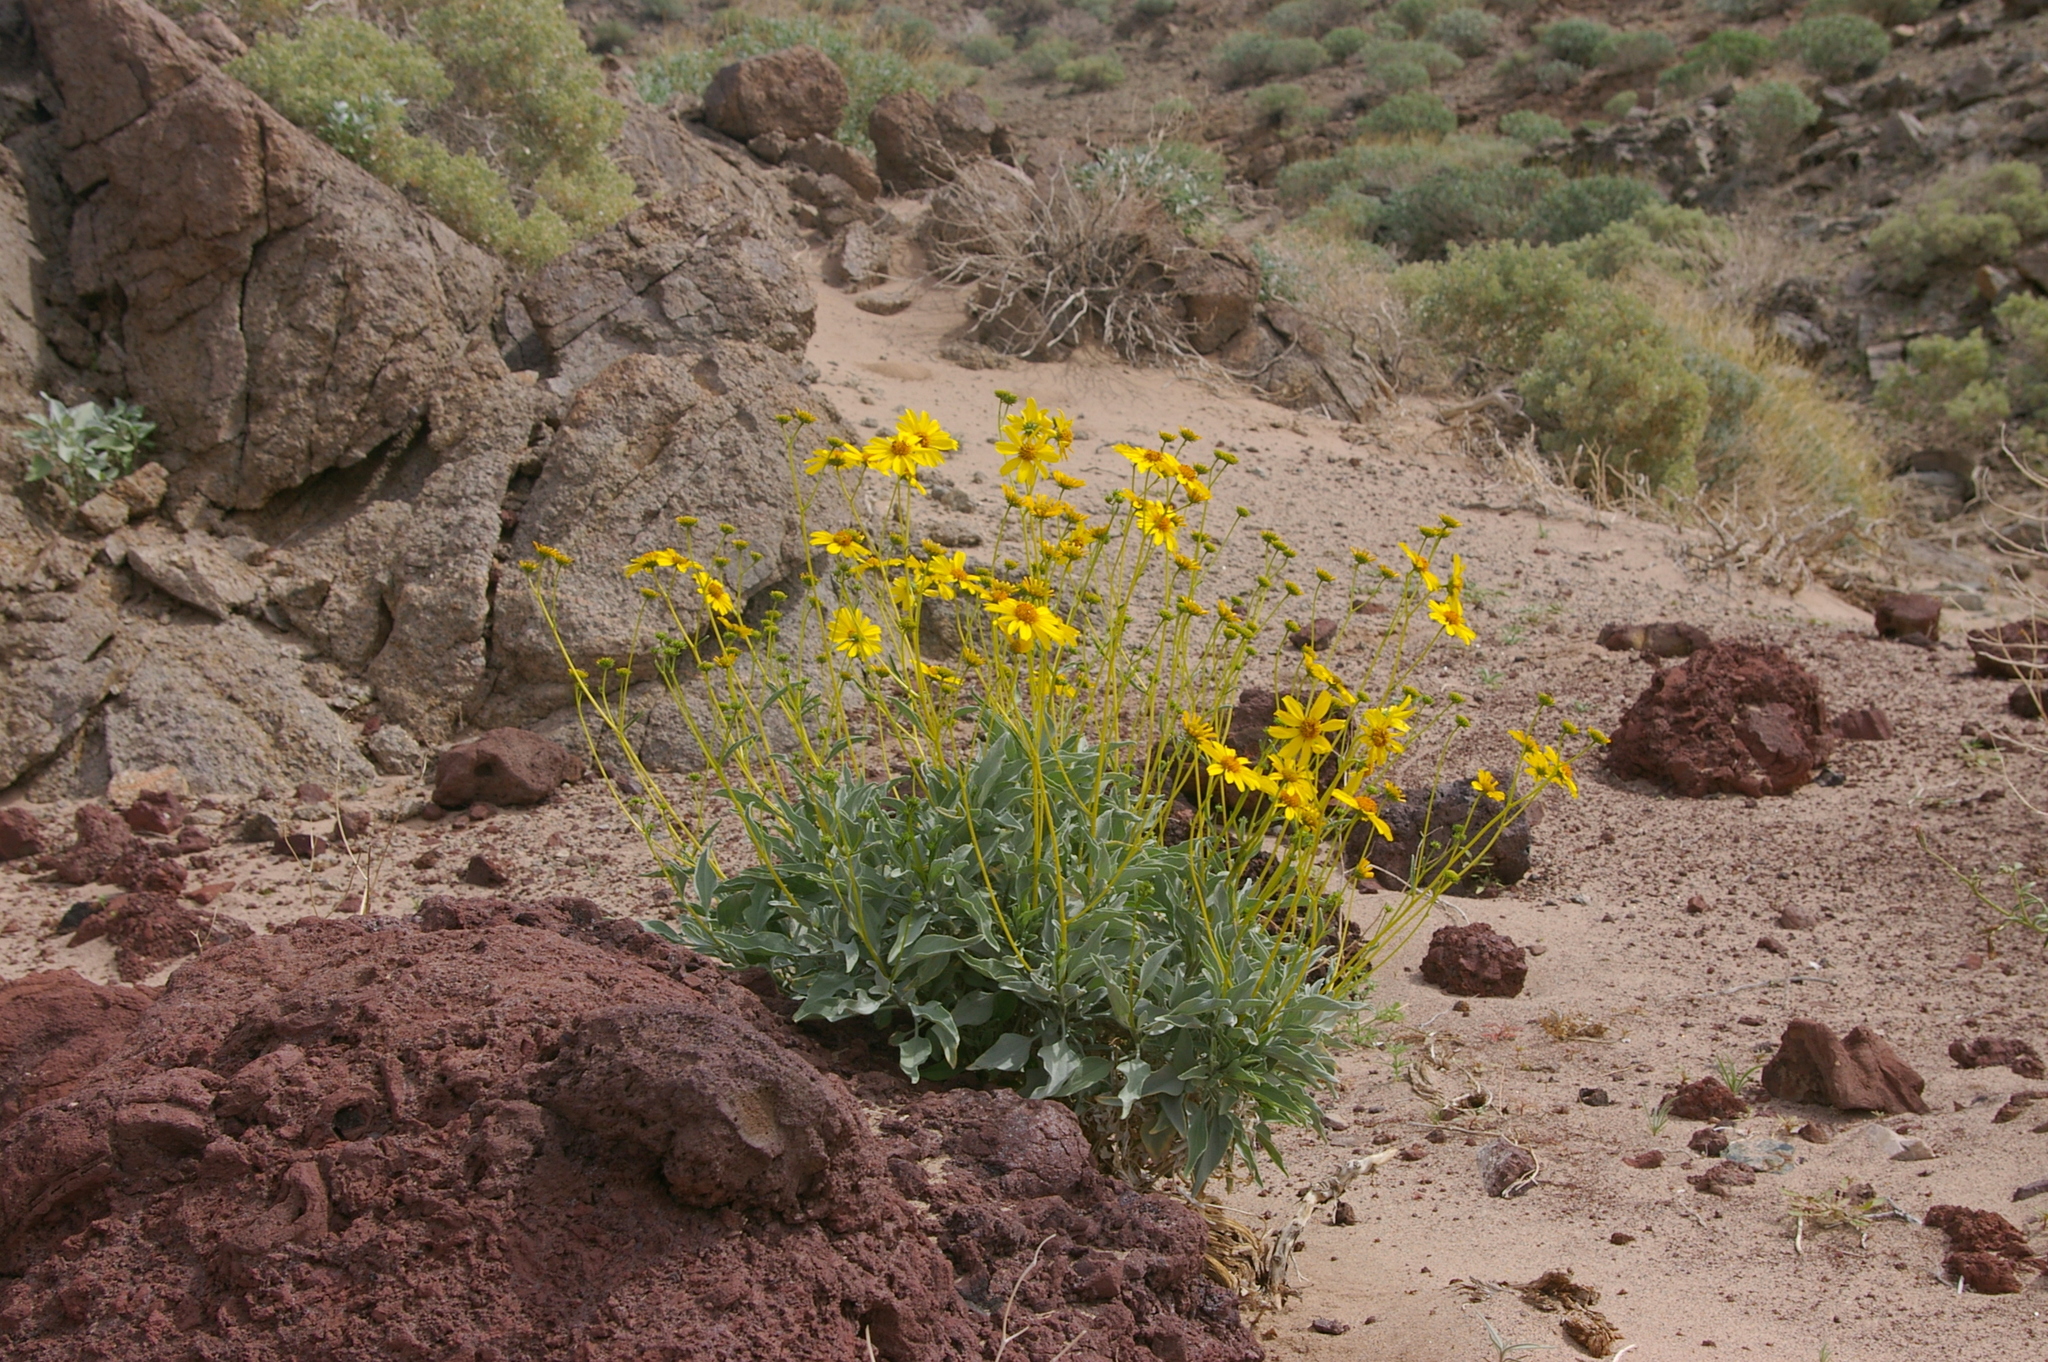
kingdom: Plantae
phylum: Tracheophyta
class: Magnoliopsida
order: Asterales
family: Asteraceae
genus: Encelia
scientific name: Encelia farinosa
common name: Brittlebush
